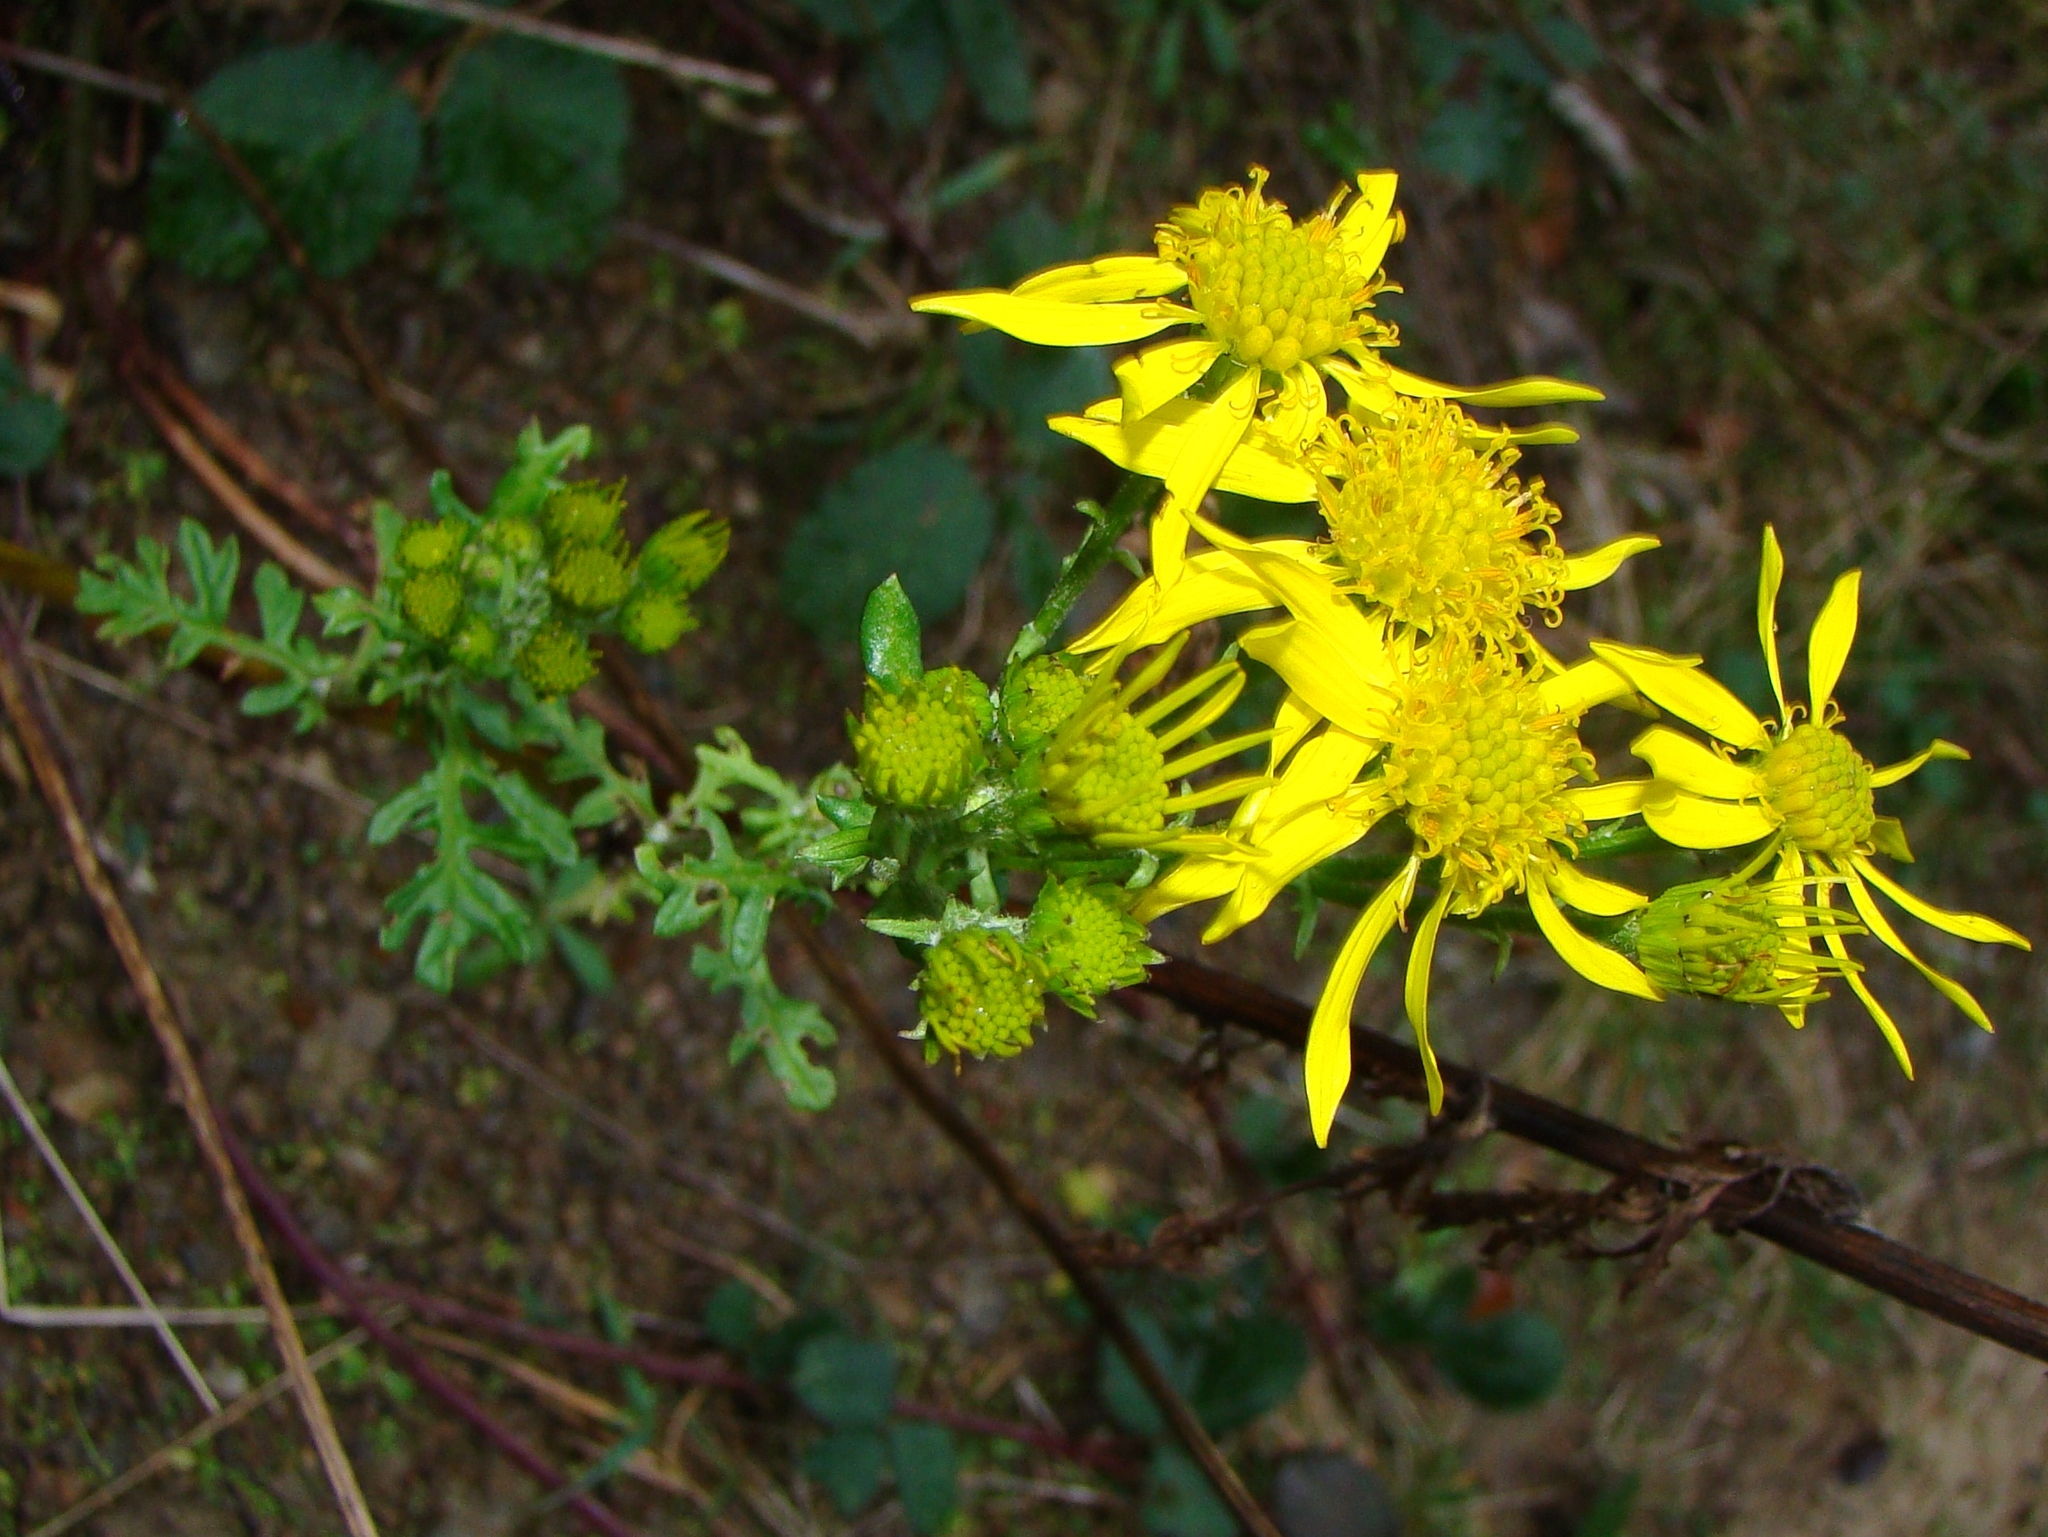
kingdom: Plantae
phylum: Tracheophyta
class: Magnoliopsida
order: Asterales
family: Asteraceae
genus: Jacobaea
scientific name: Jacobaea vulgaris
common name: Stinking willie
